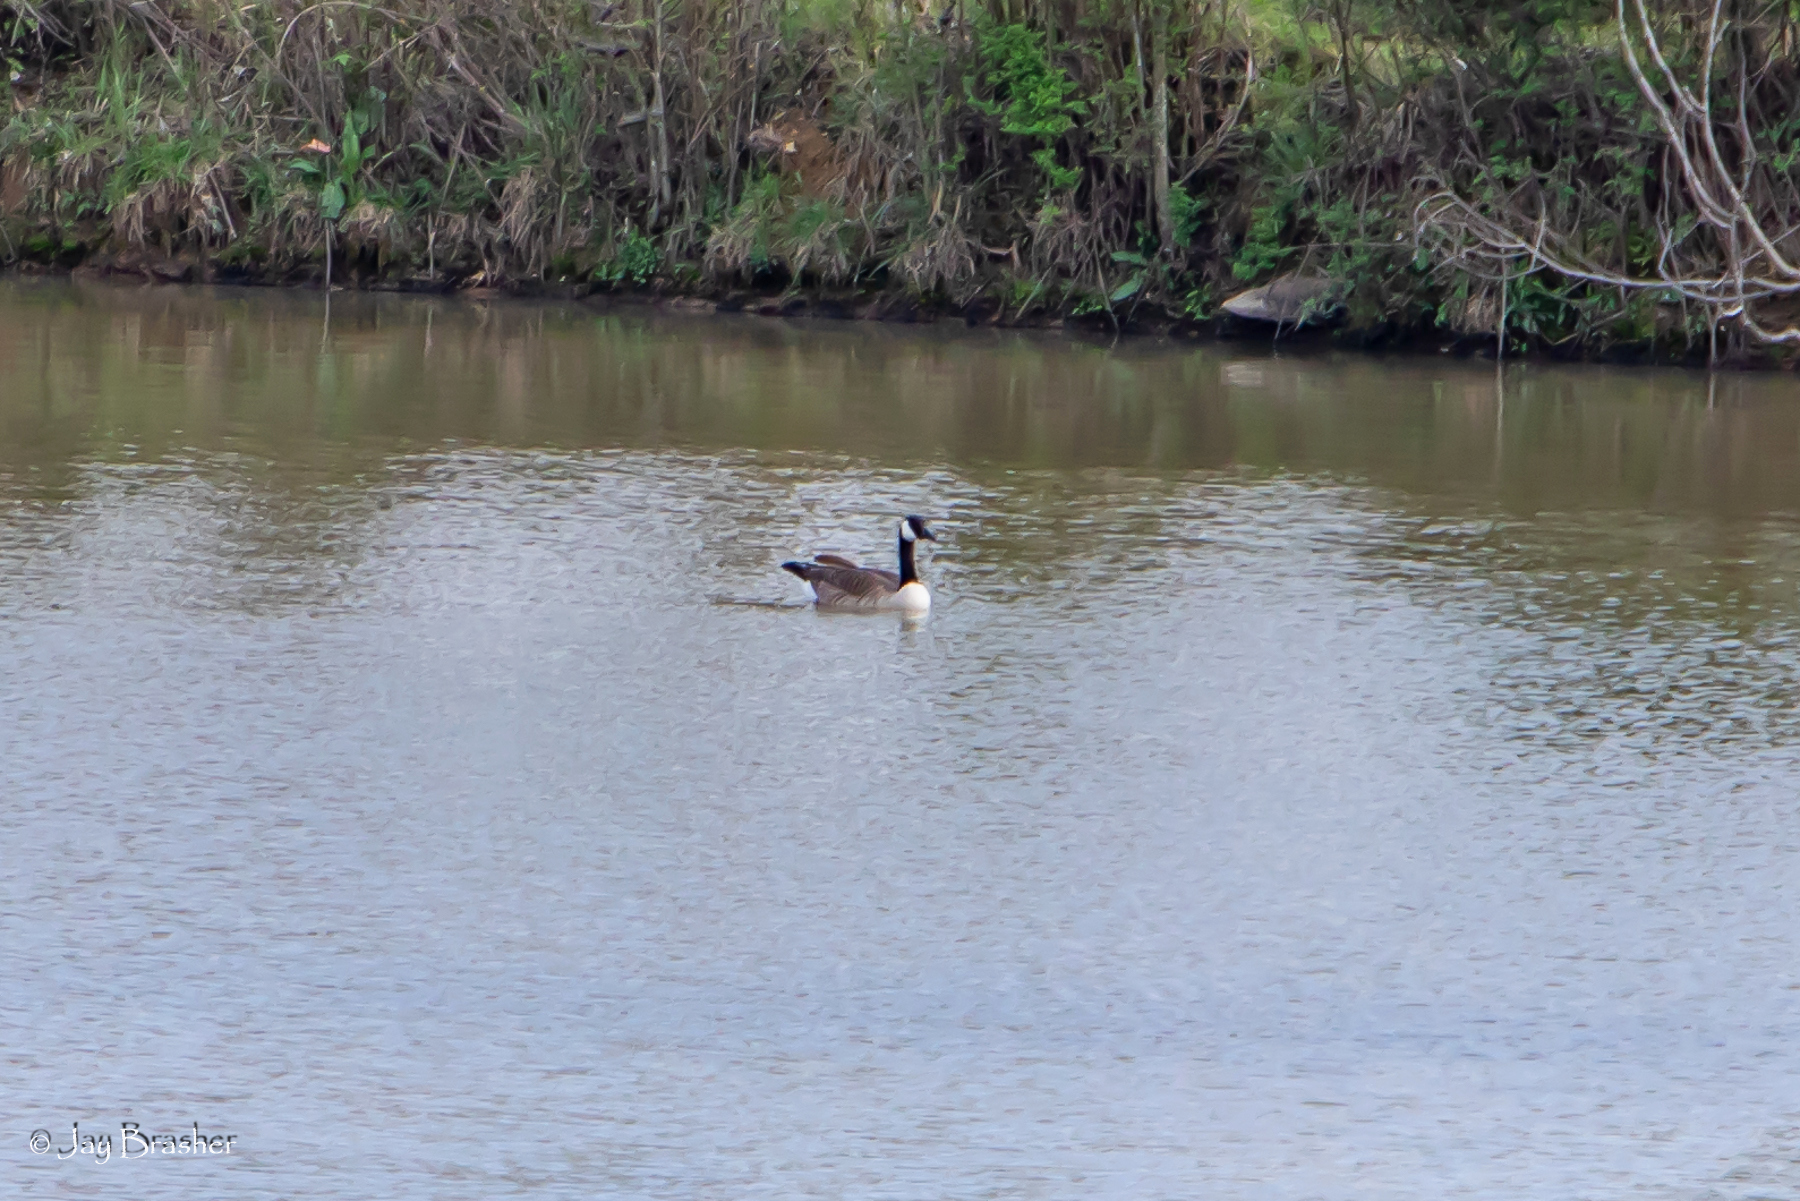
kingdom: Animalia
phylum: Chordata
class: Aves
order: Anseriformes
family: Anatidae
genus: Branta
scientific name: Branta canadensis
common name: Canada goose
